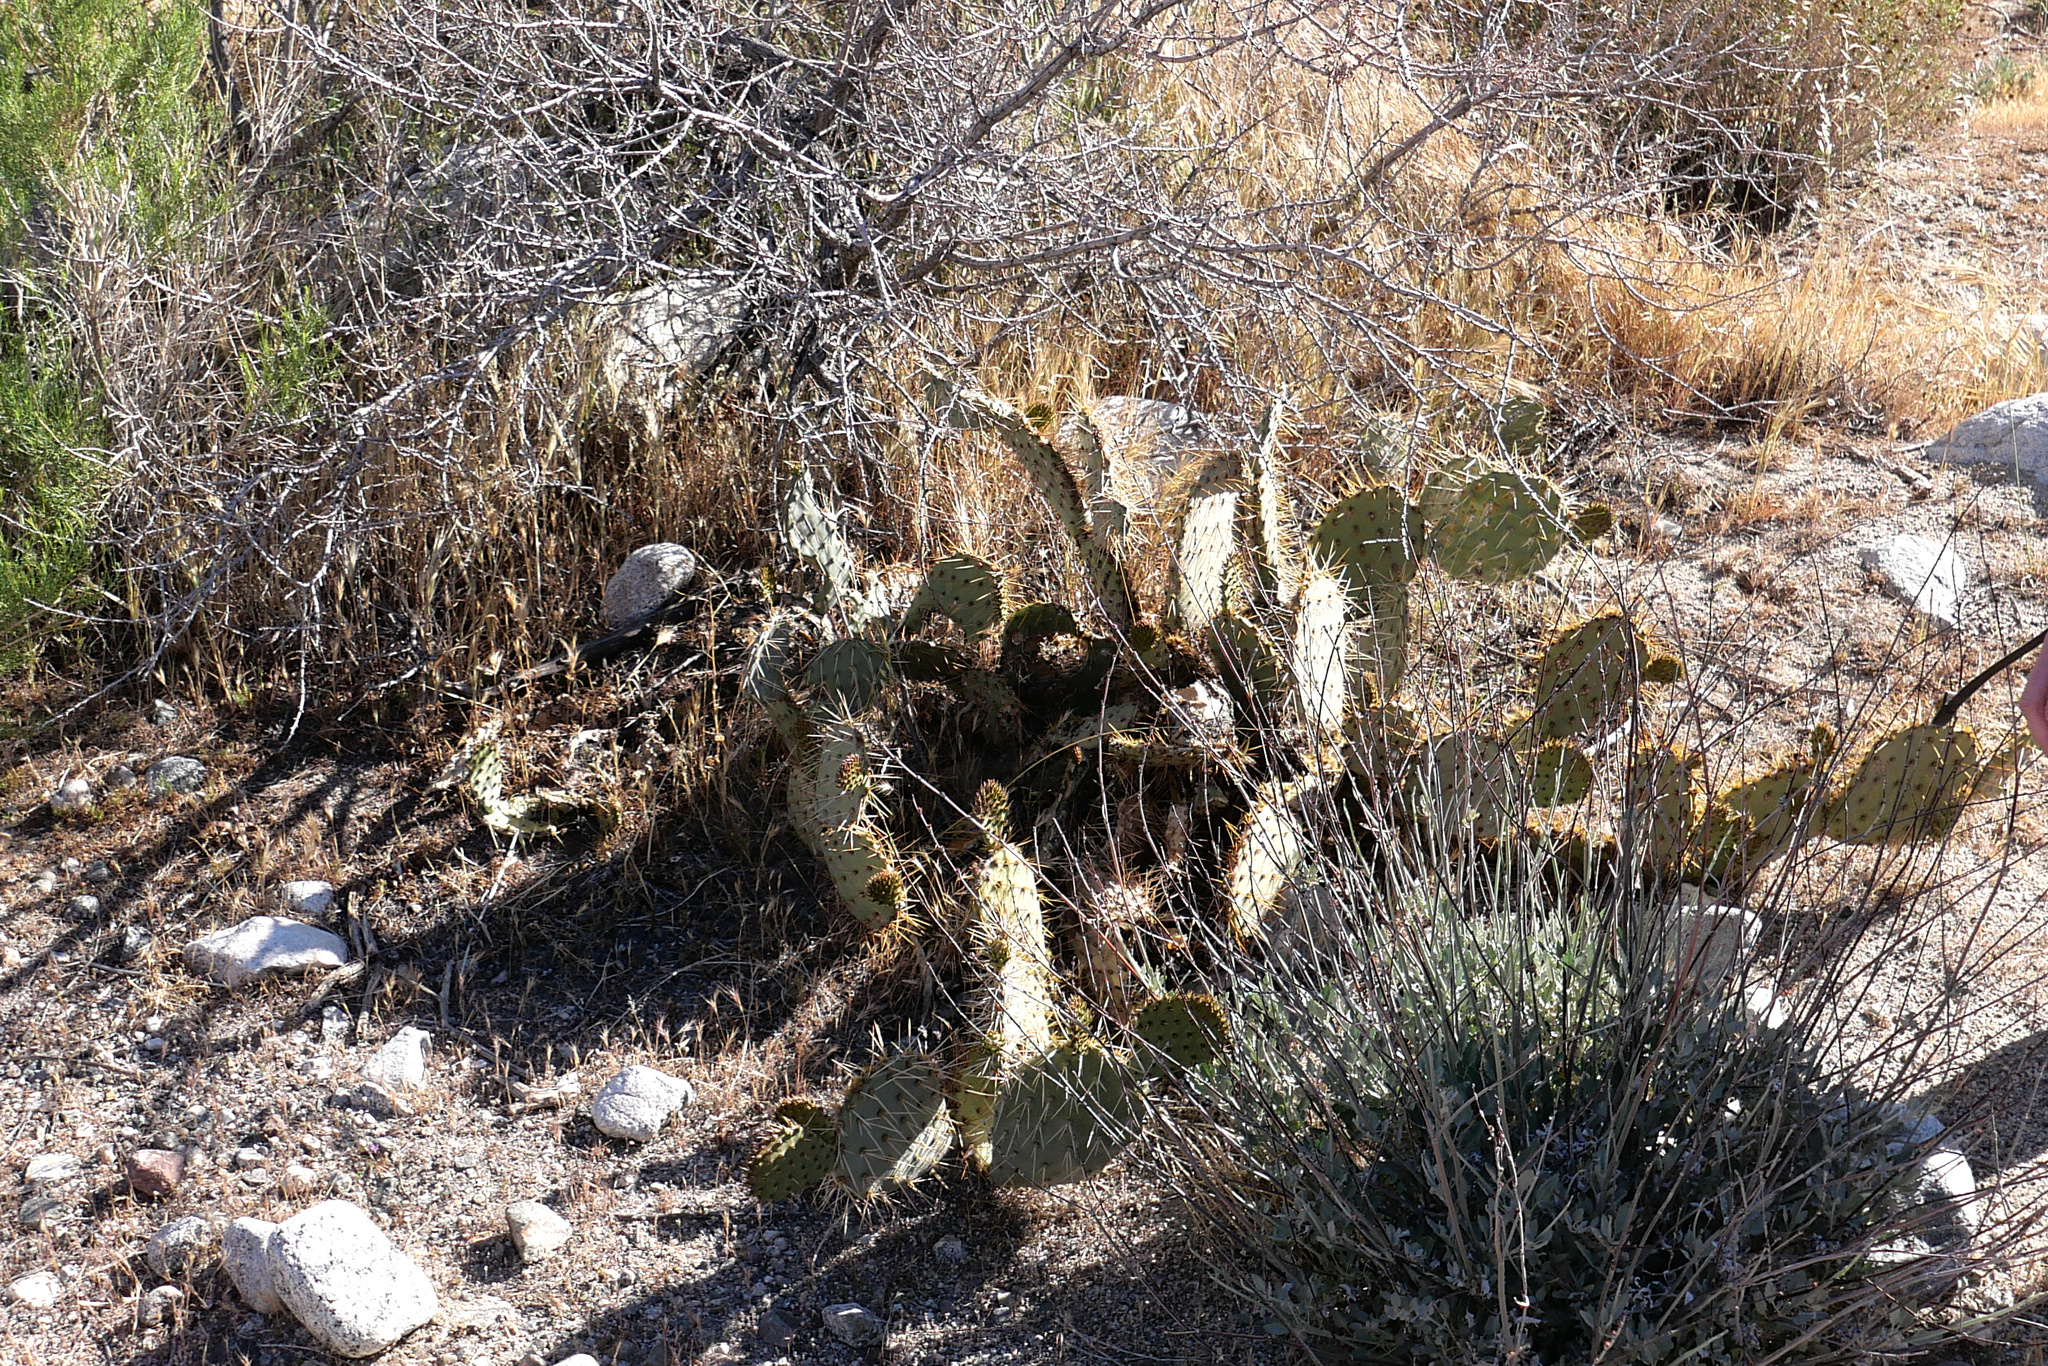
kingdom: Plantae
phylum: Tracheophyta
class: Magnoliopsida
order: Caryophyllales
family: Cactaceae
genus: Opuntia
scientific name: Opuntia phaeacantha
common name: New mexico prickly-pear
